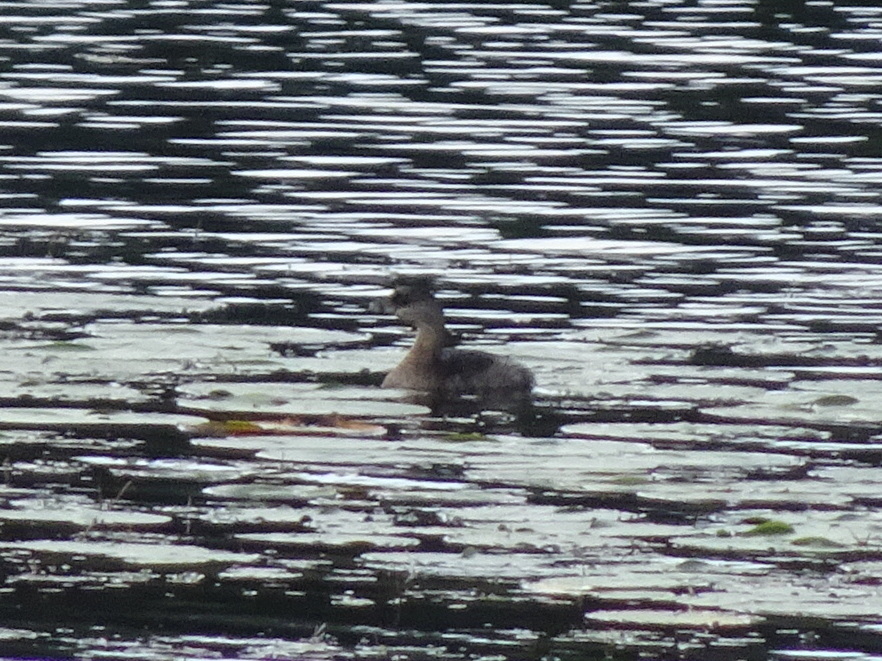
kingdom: Animalia
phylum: Chordata
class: Aves
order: Podicipediformes
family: Podicipedidae
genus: Podilymbus
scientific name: Podilymbus podiceps
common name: Pied-billed grebe
